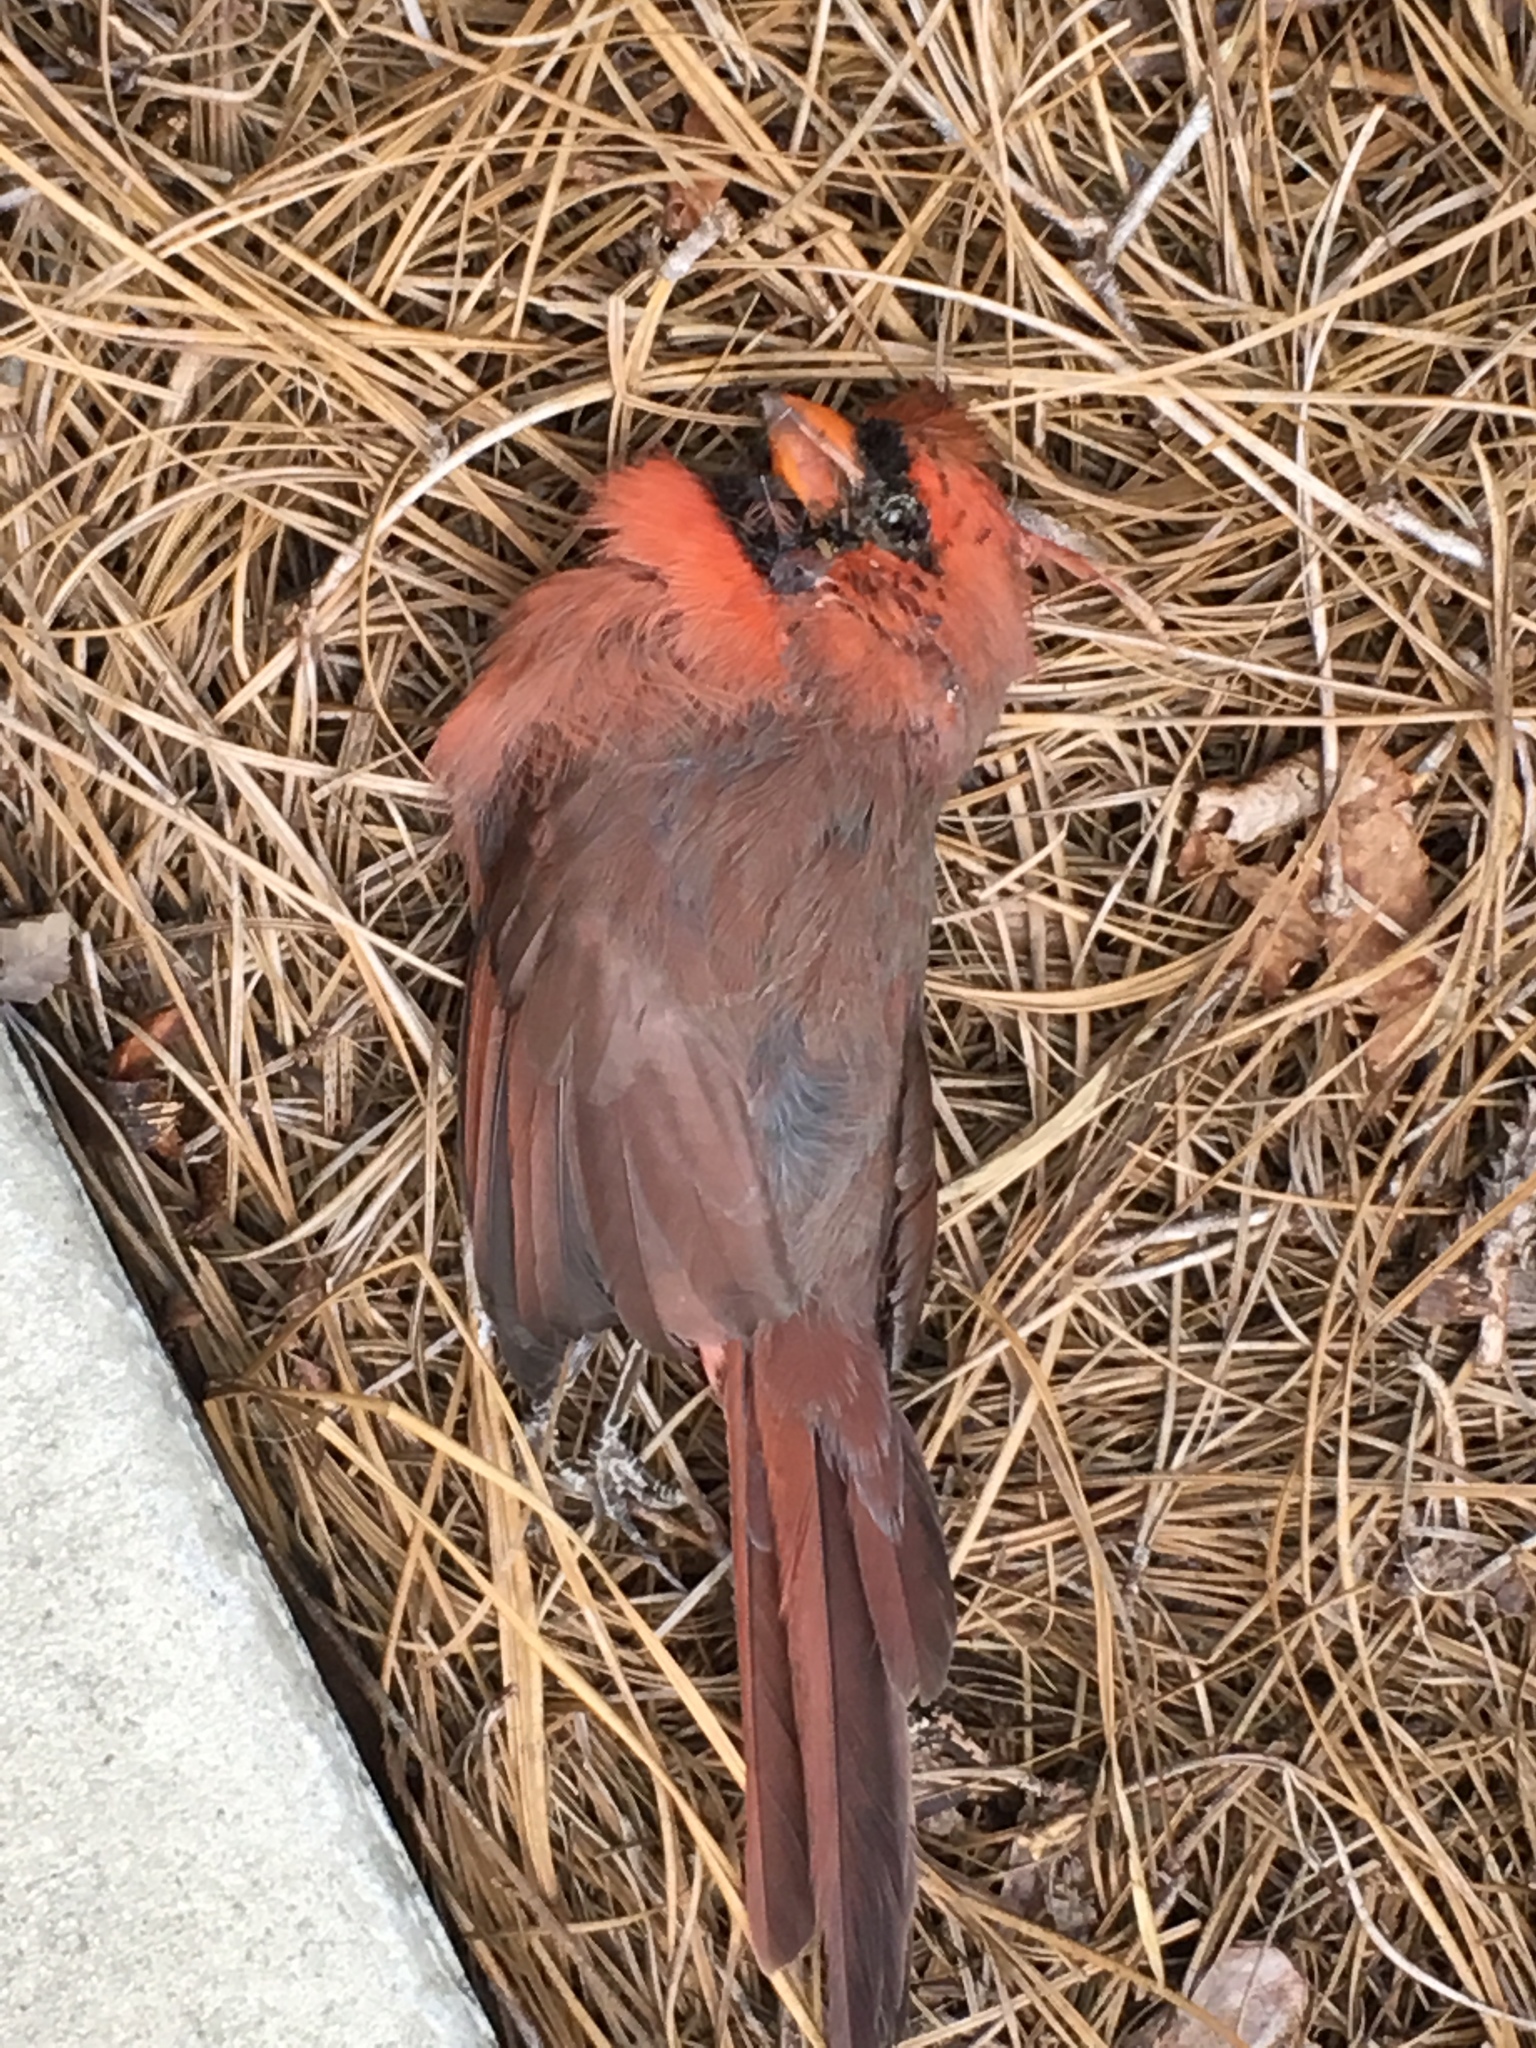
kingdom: Animalia
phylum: Chordata
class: Aves
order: Passeriformes
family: Cardinalidae
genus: Cardinalis
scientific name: Cardinalis cardinalis
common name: Northern cardinal
